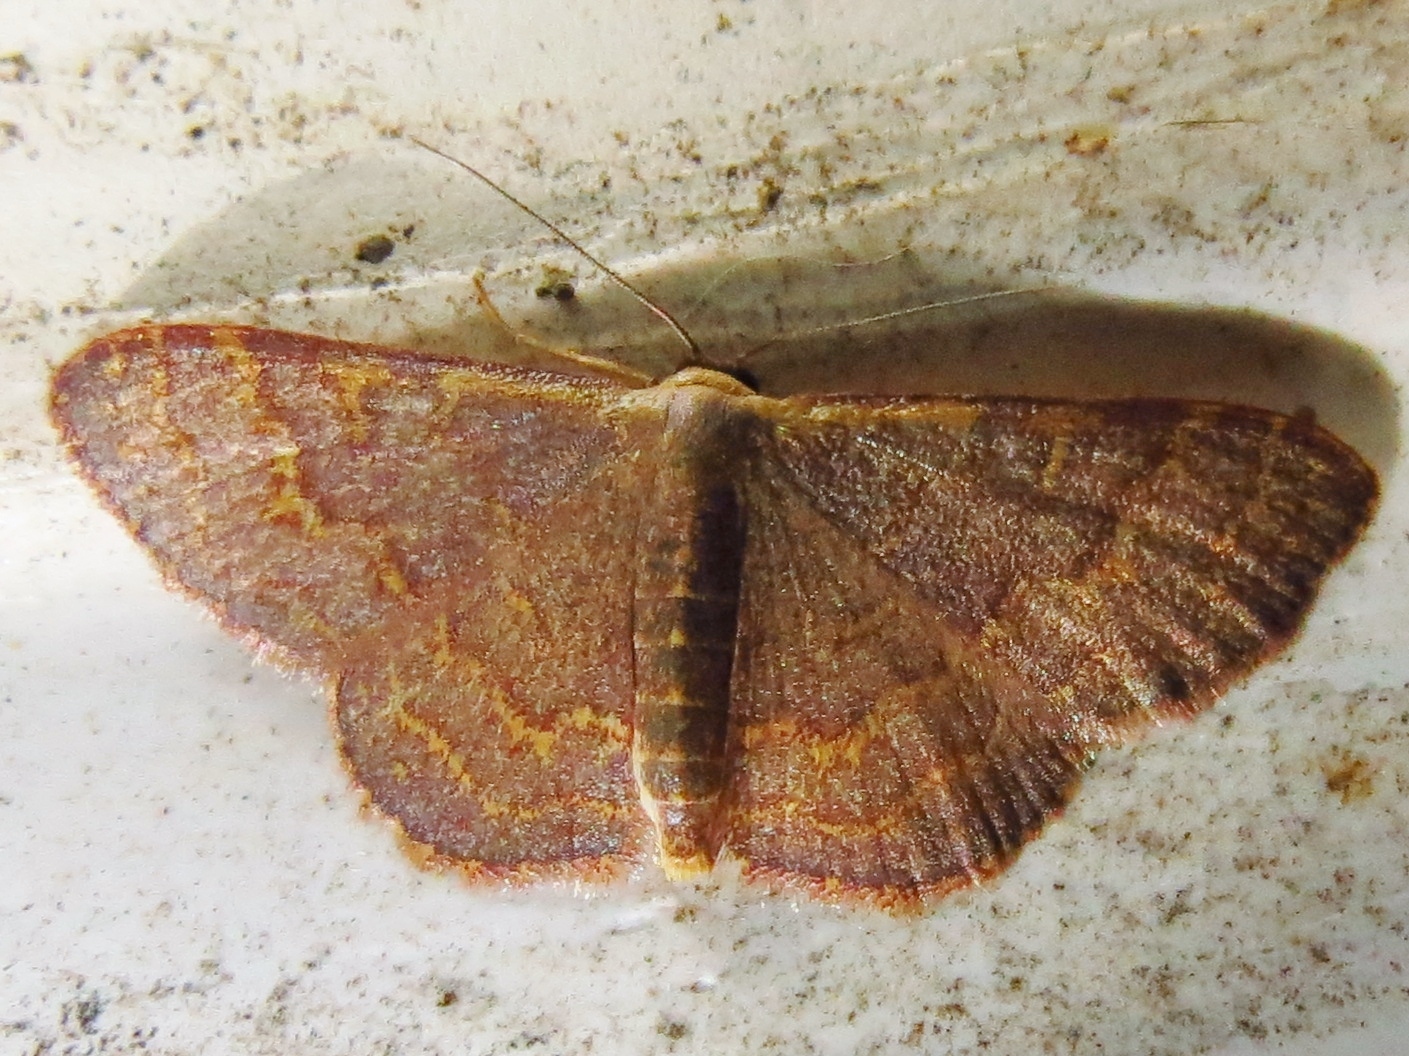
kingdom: Animalia
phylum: Arthropoda
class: Insecta
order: Lepidoptera
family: Geometridae
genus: Leptostales
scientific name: Leptostales pannaria
